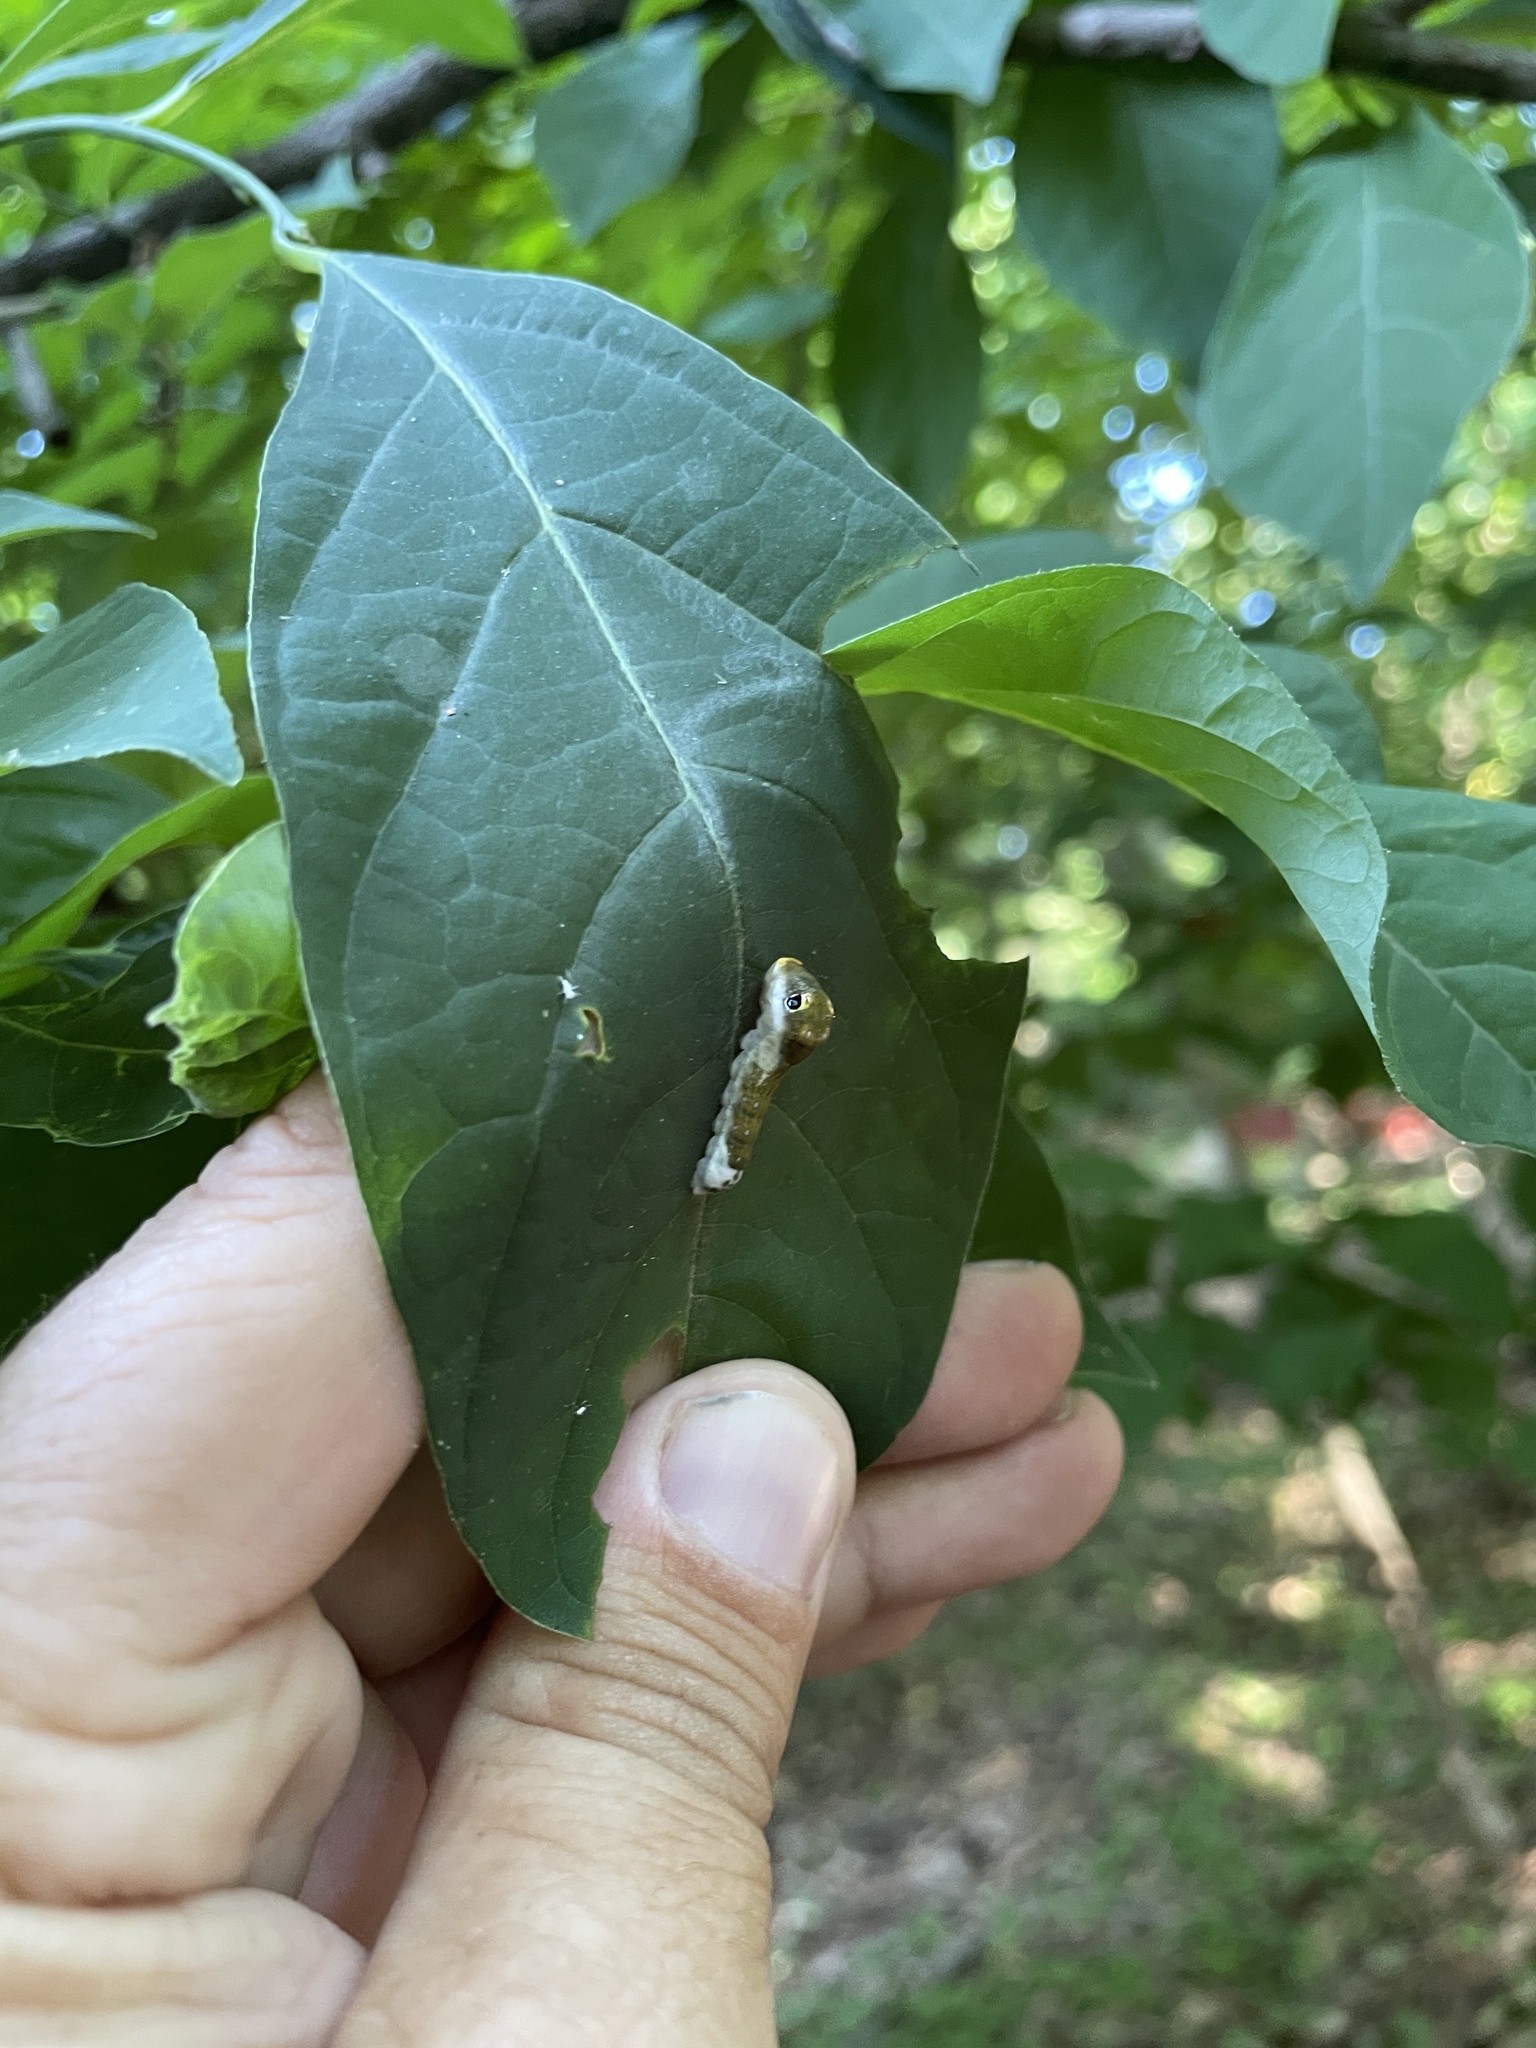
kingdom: Animalia
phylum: Arthropoda
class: Insecta
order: Lepidoptera
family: Papilionidae
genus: Papilio
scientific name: Papilio troilus
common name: Spicebush swallowtail
